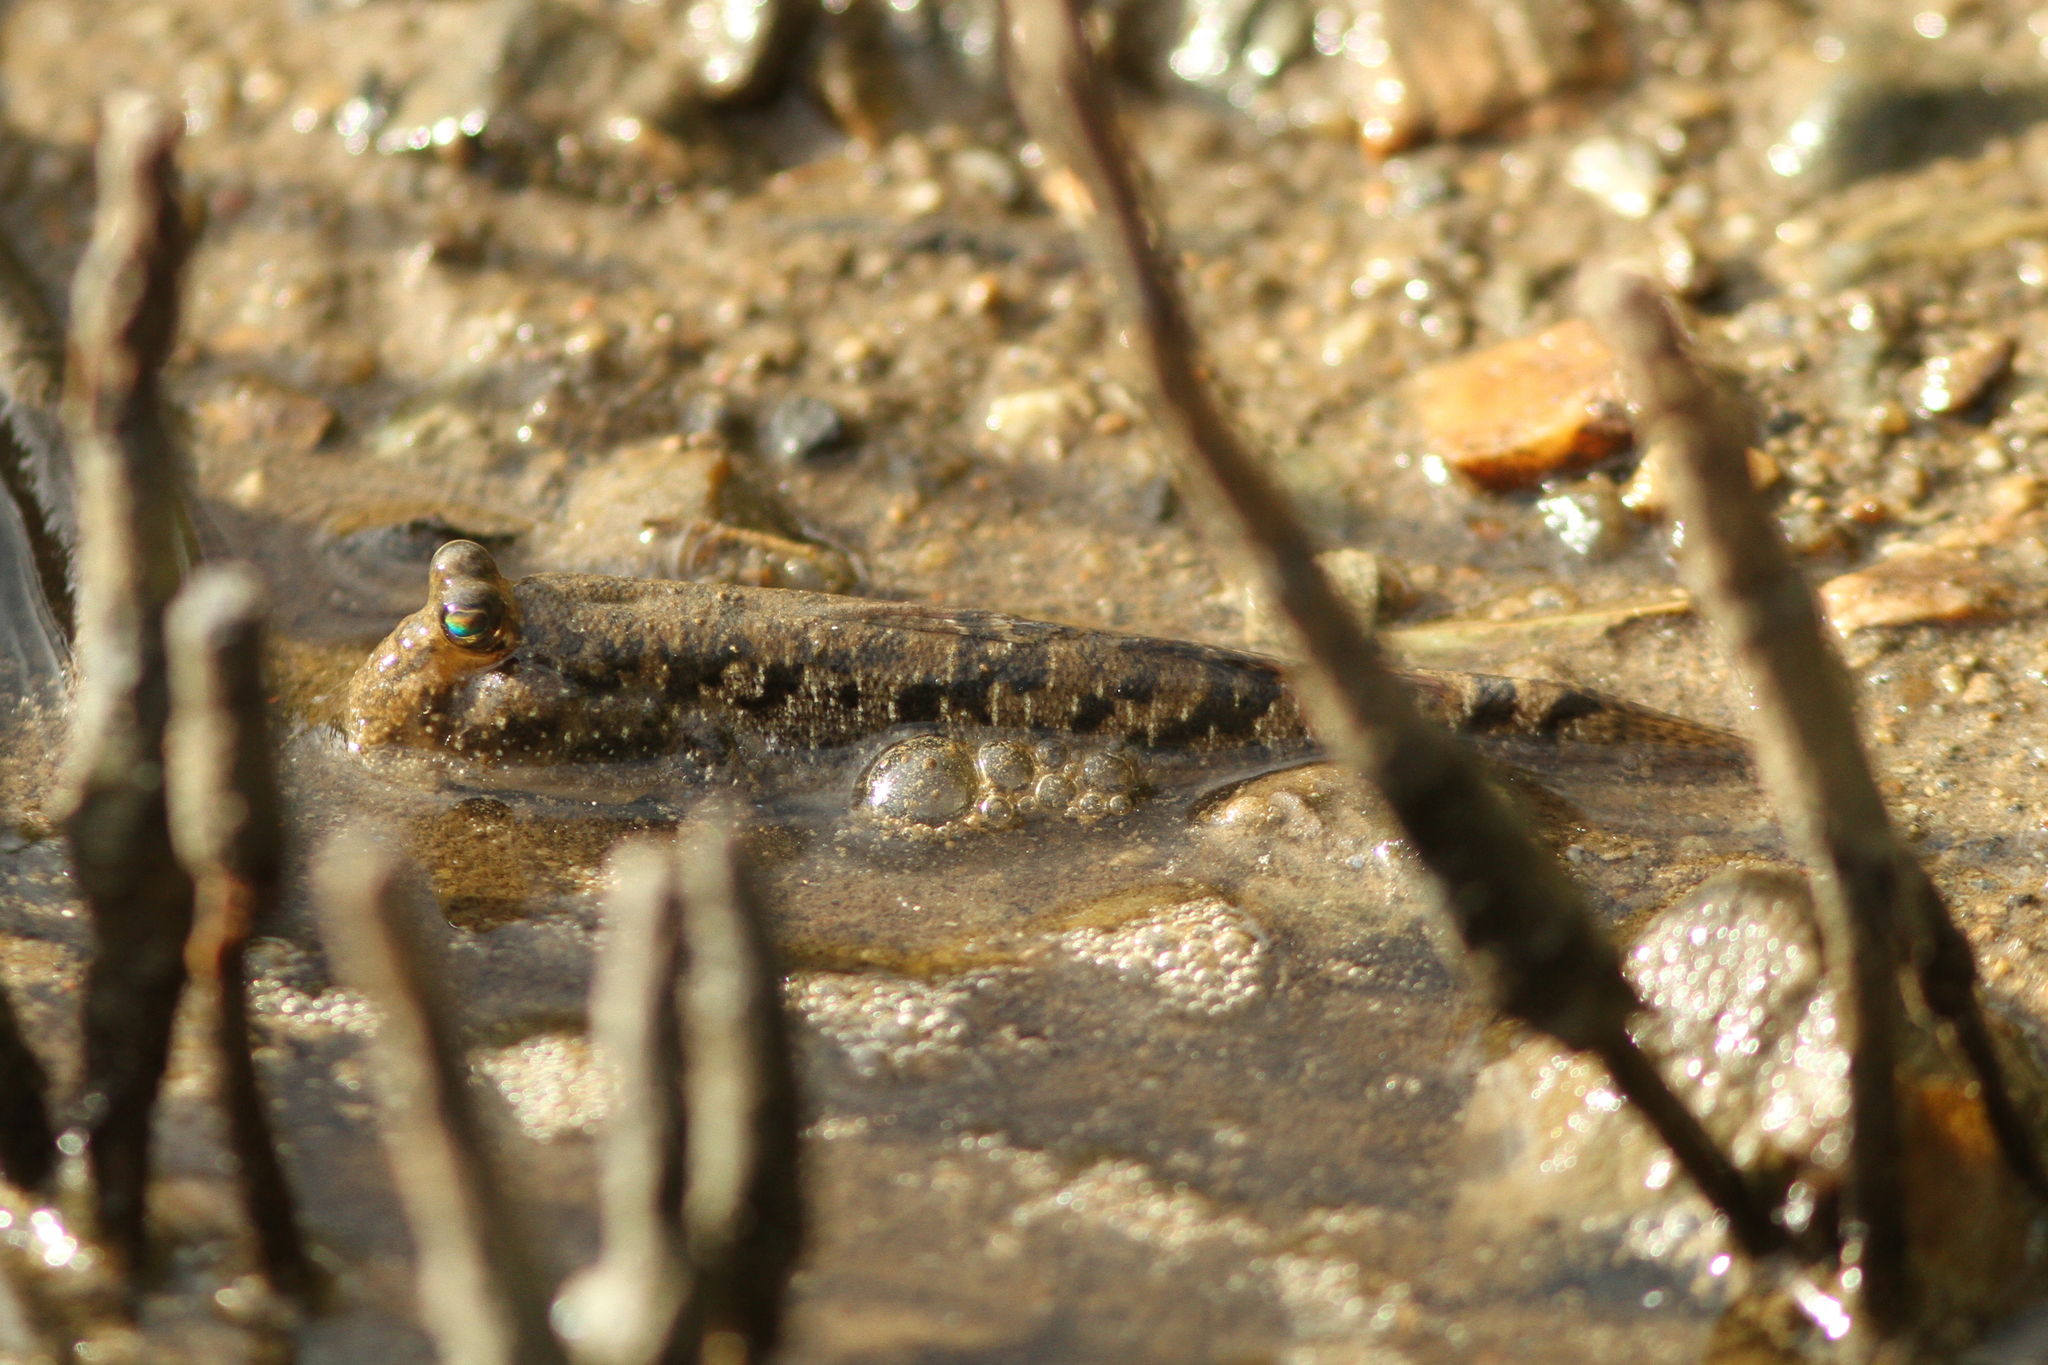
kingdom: Animalia
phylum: Chordata
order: Perciformes
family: Gobiidae
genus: Periophthalmus
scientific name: Periophthalmus argentilineatus
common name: Barred mudskipper
